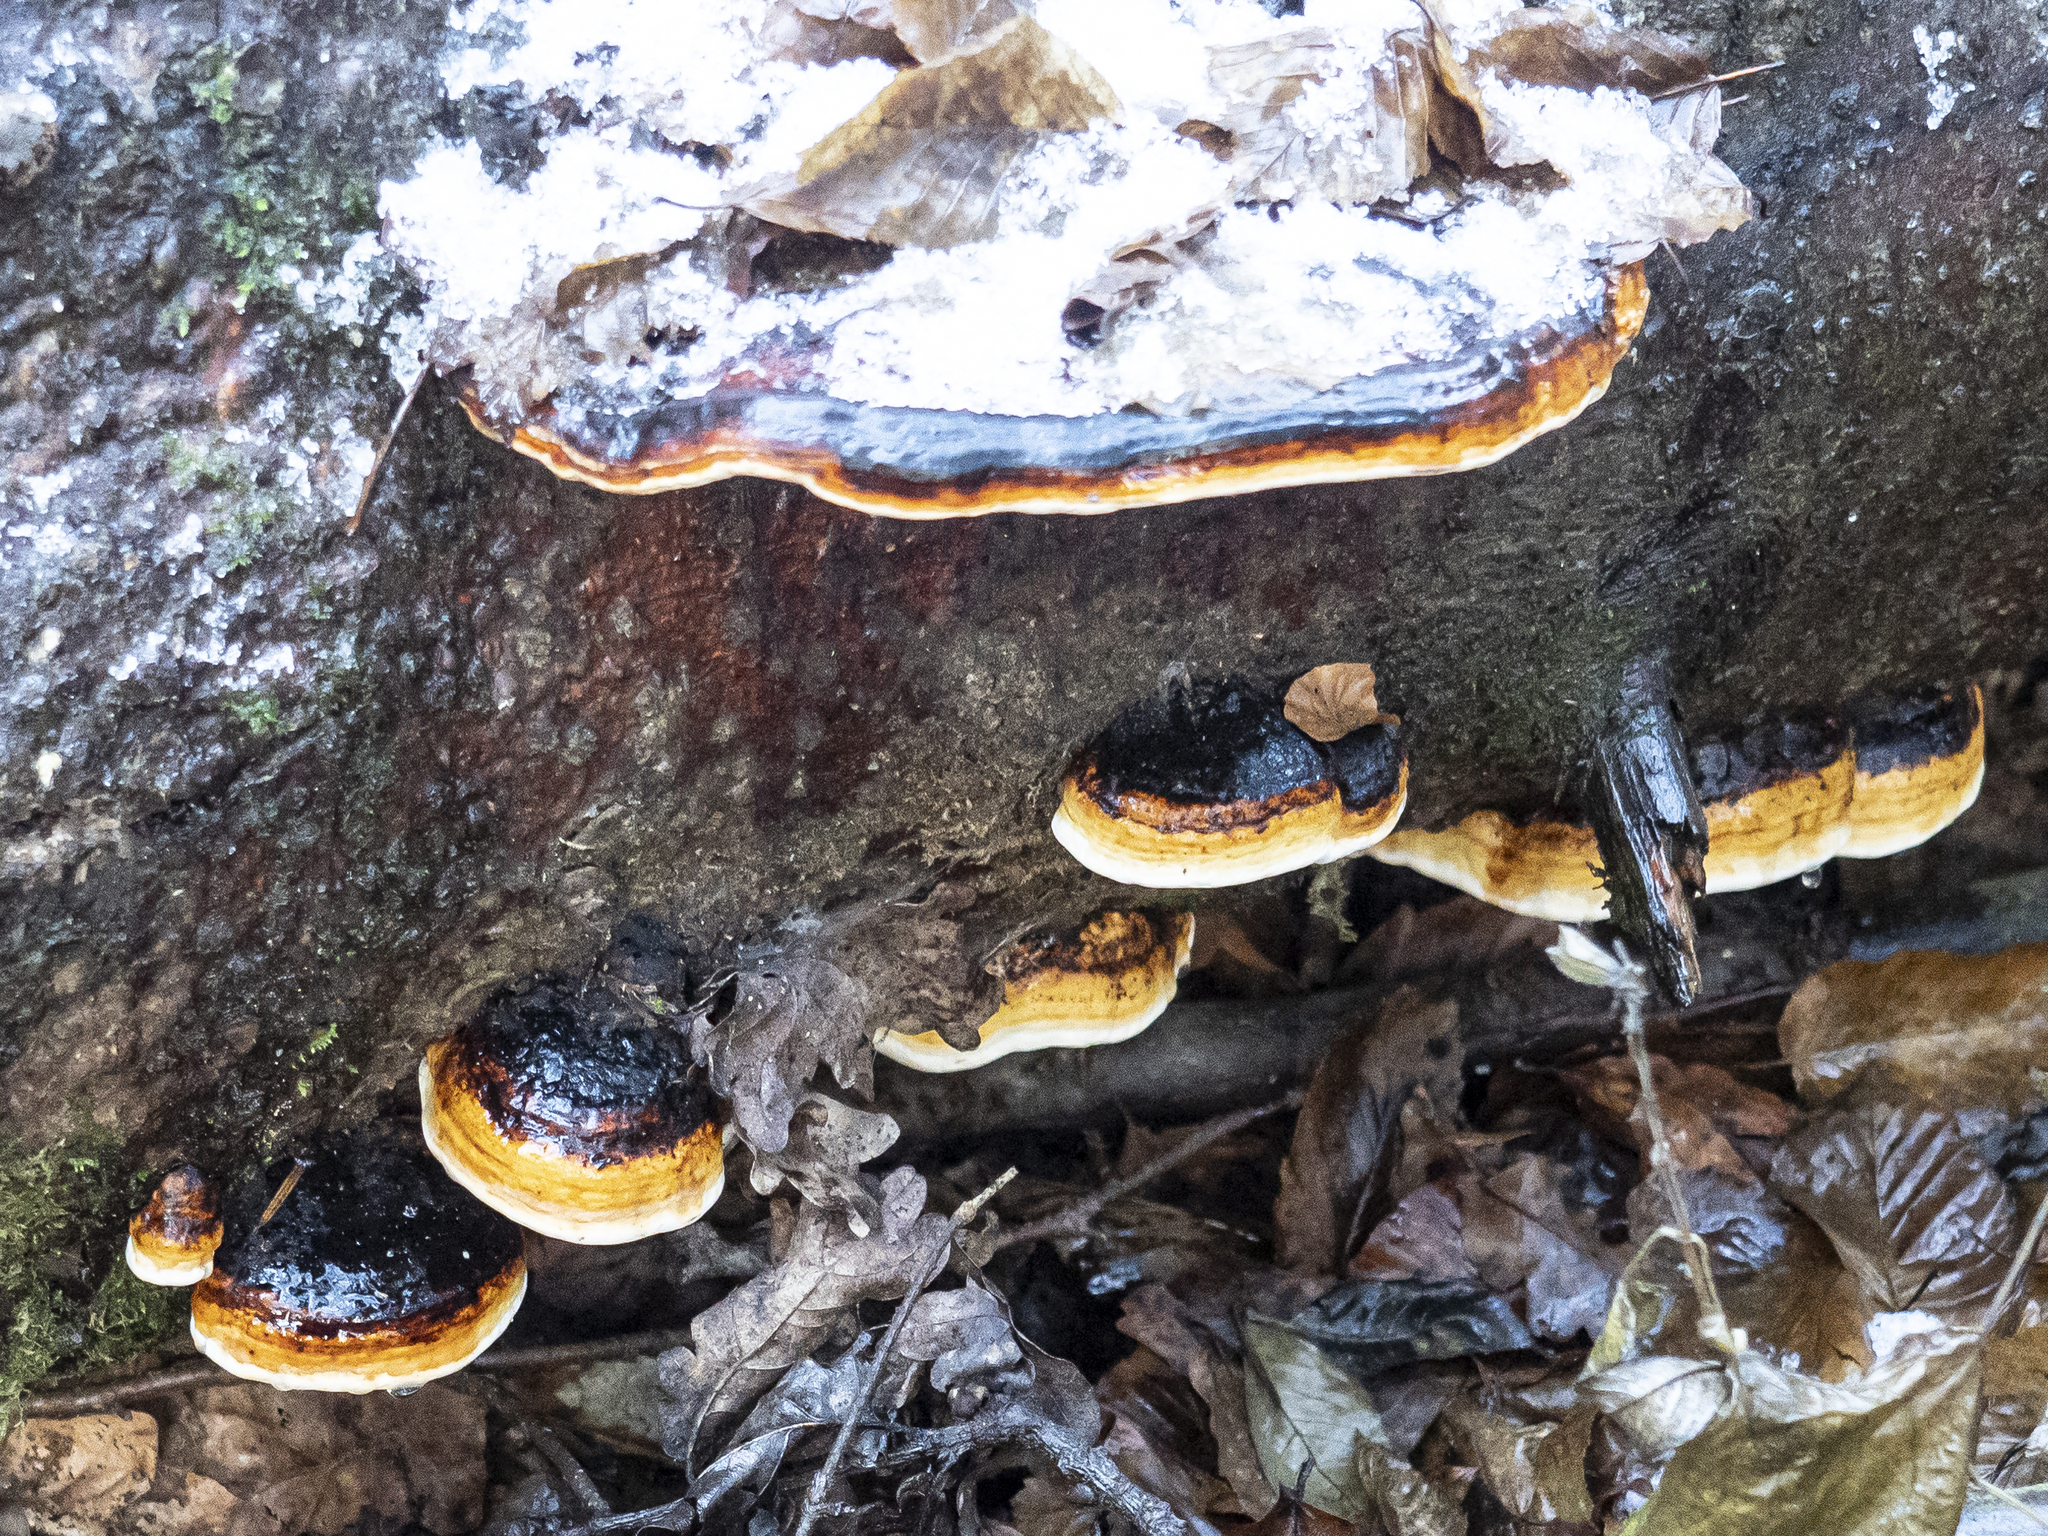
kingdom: Fungi
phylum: Basidiomycota
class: Agaricomycetes
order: Polyporales
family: Fomitopsidaceae
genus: Fomitopsis
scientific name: Fomitopsis pinicola
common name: Red-belted bracket
